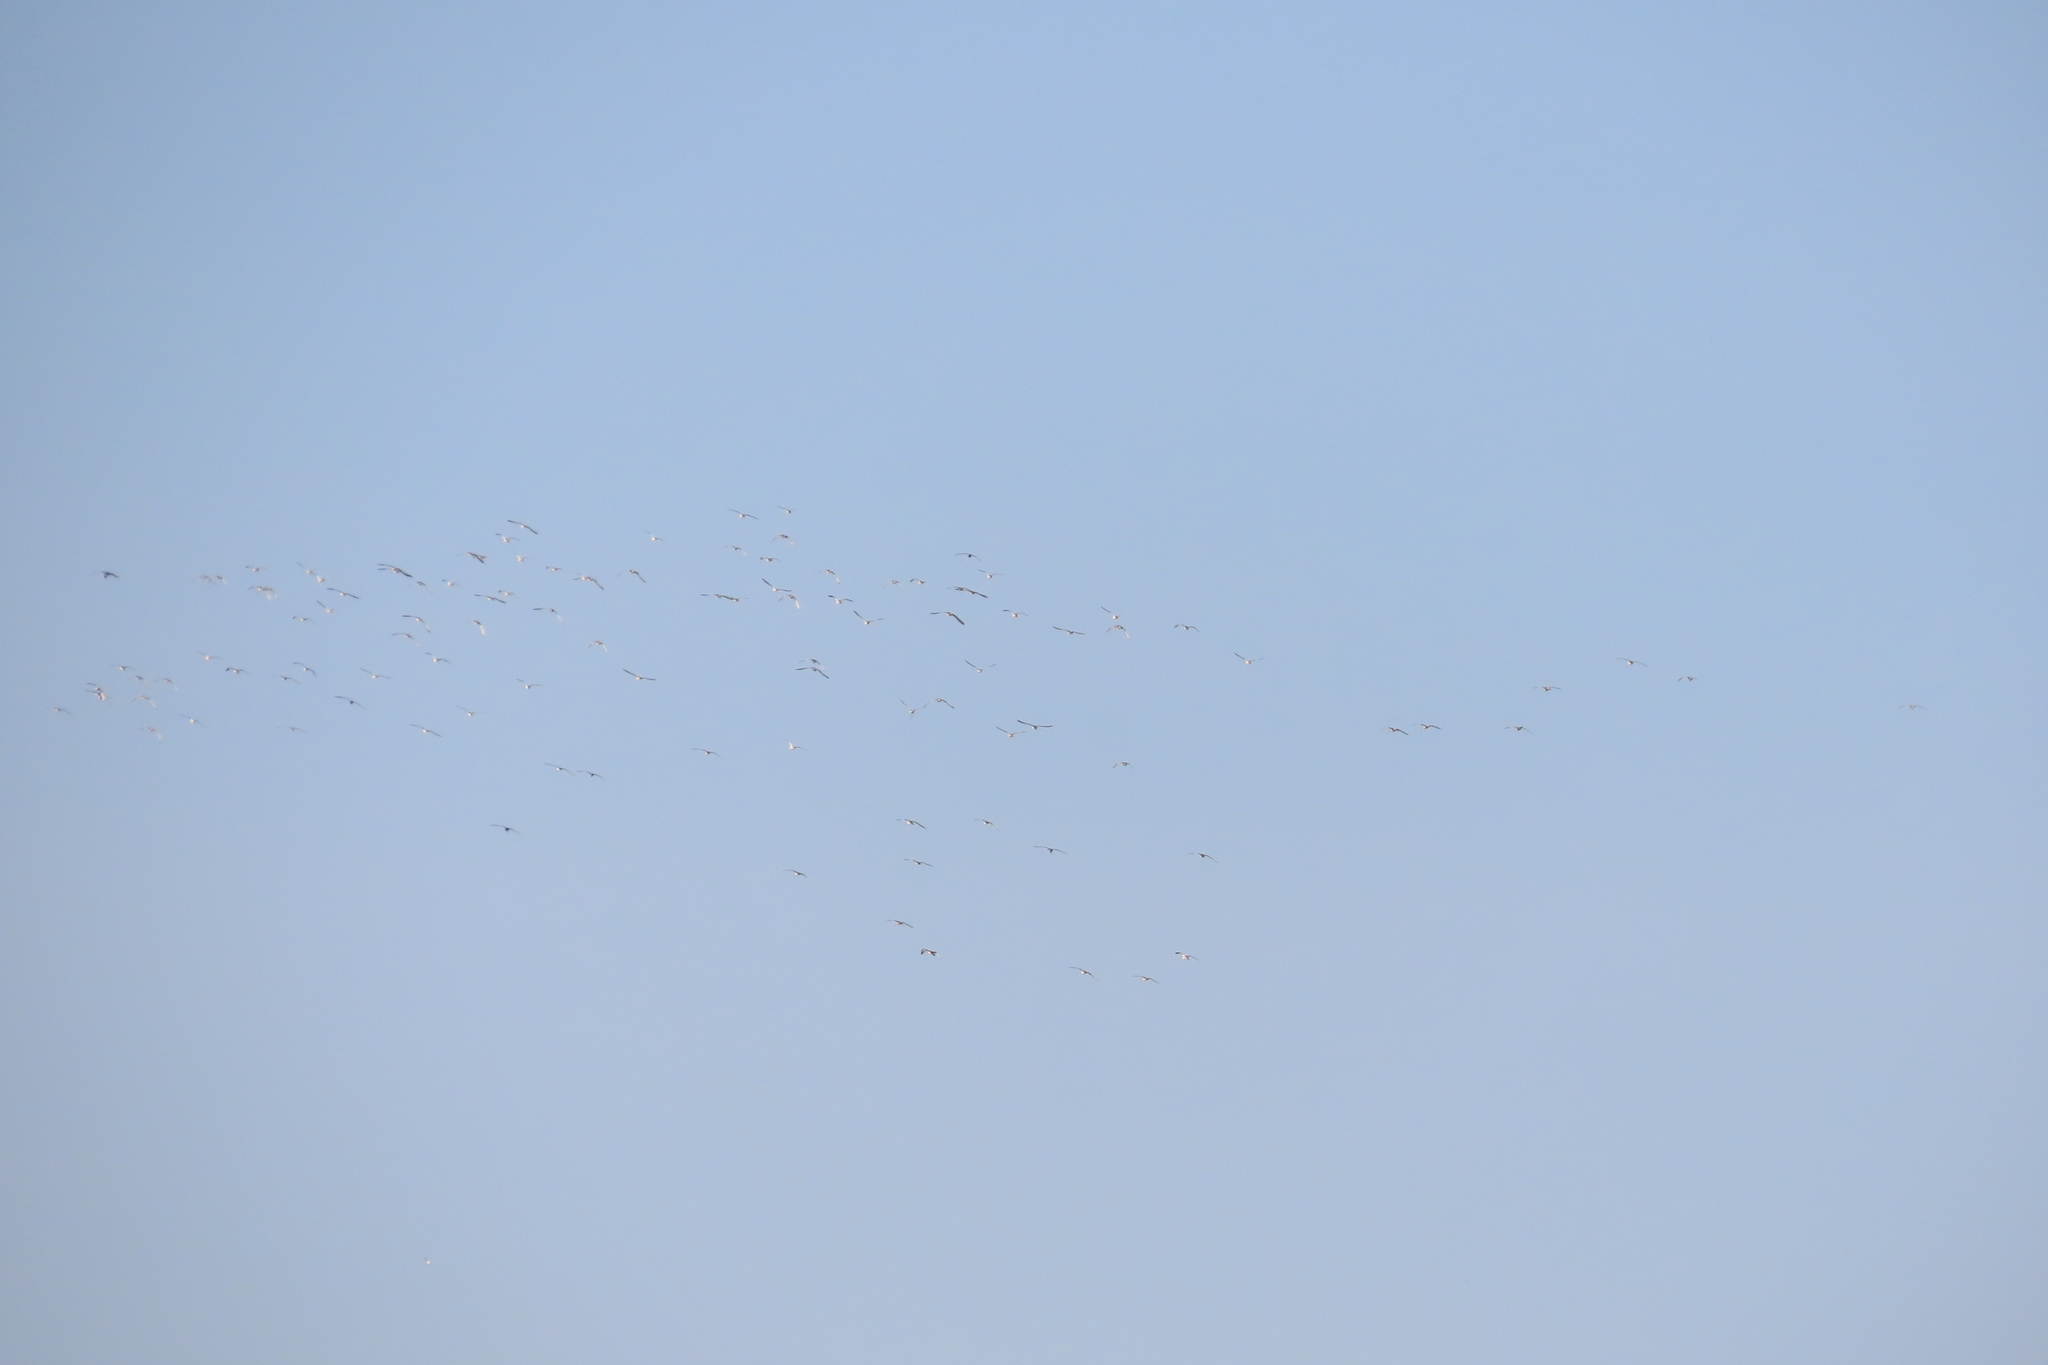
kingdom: Animalia
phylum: Chordata
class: Aves
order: Charadriiformes
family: Scolopacidae
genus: Limosa
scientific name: Limosa limosa
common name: Black-tailed godwit
